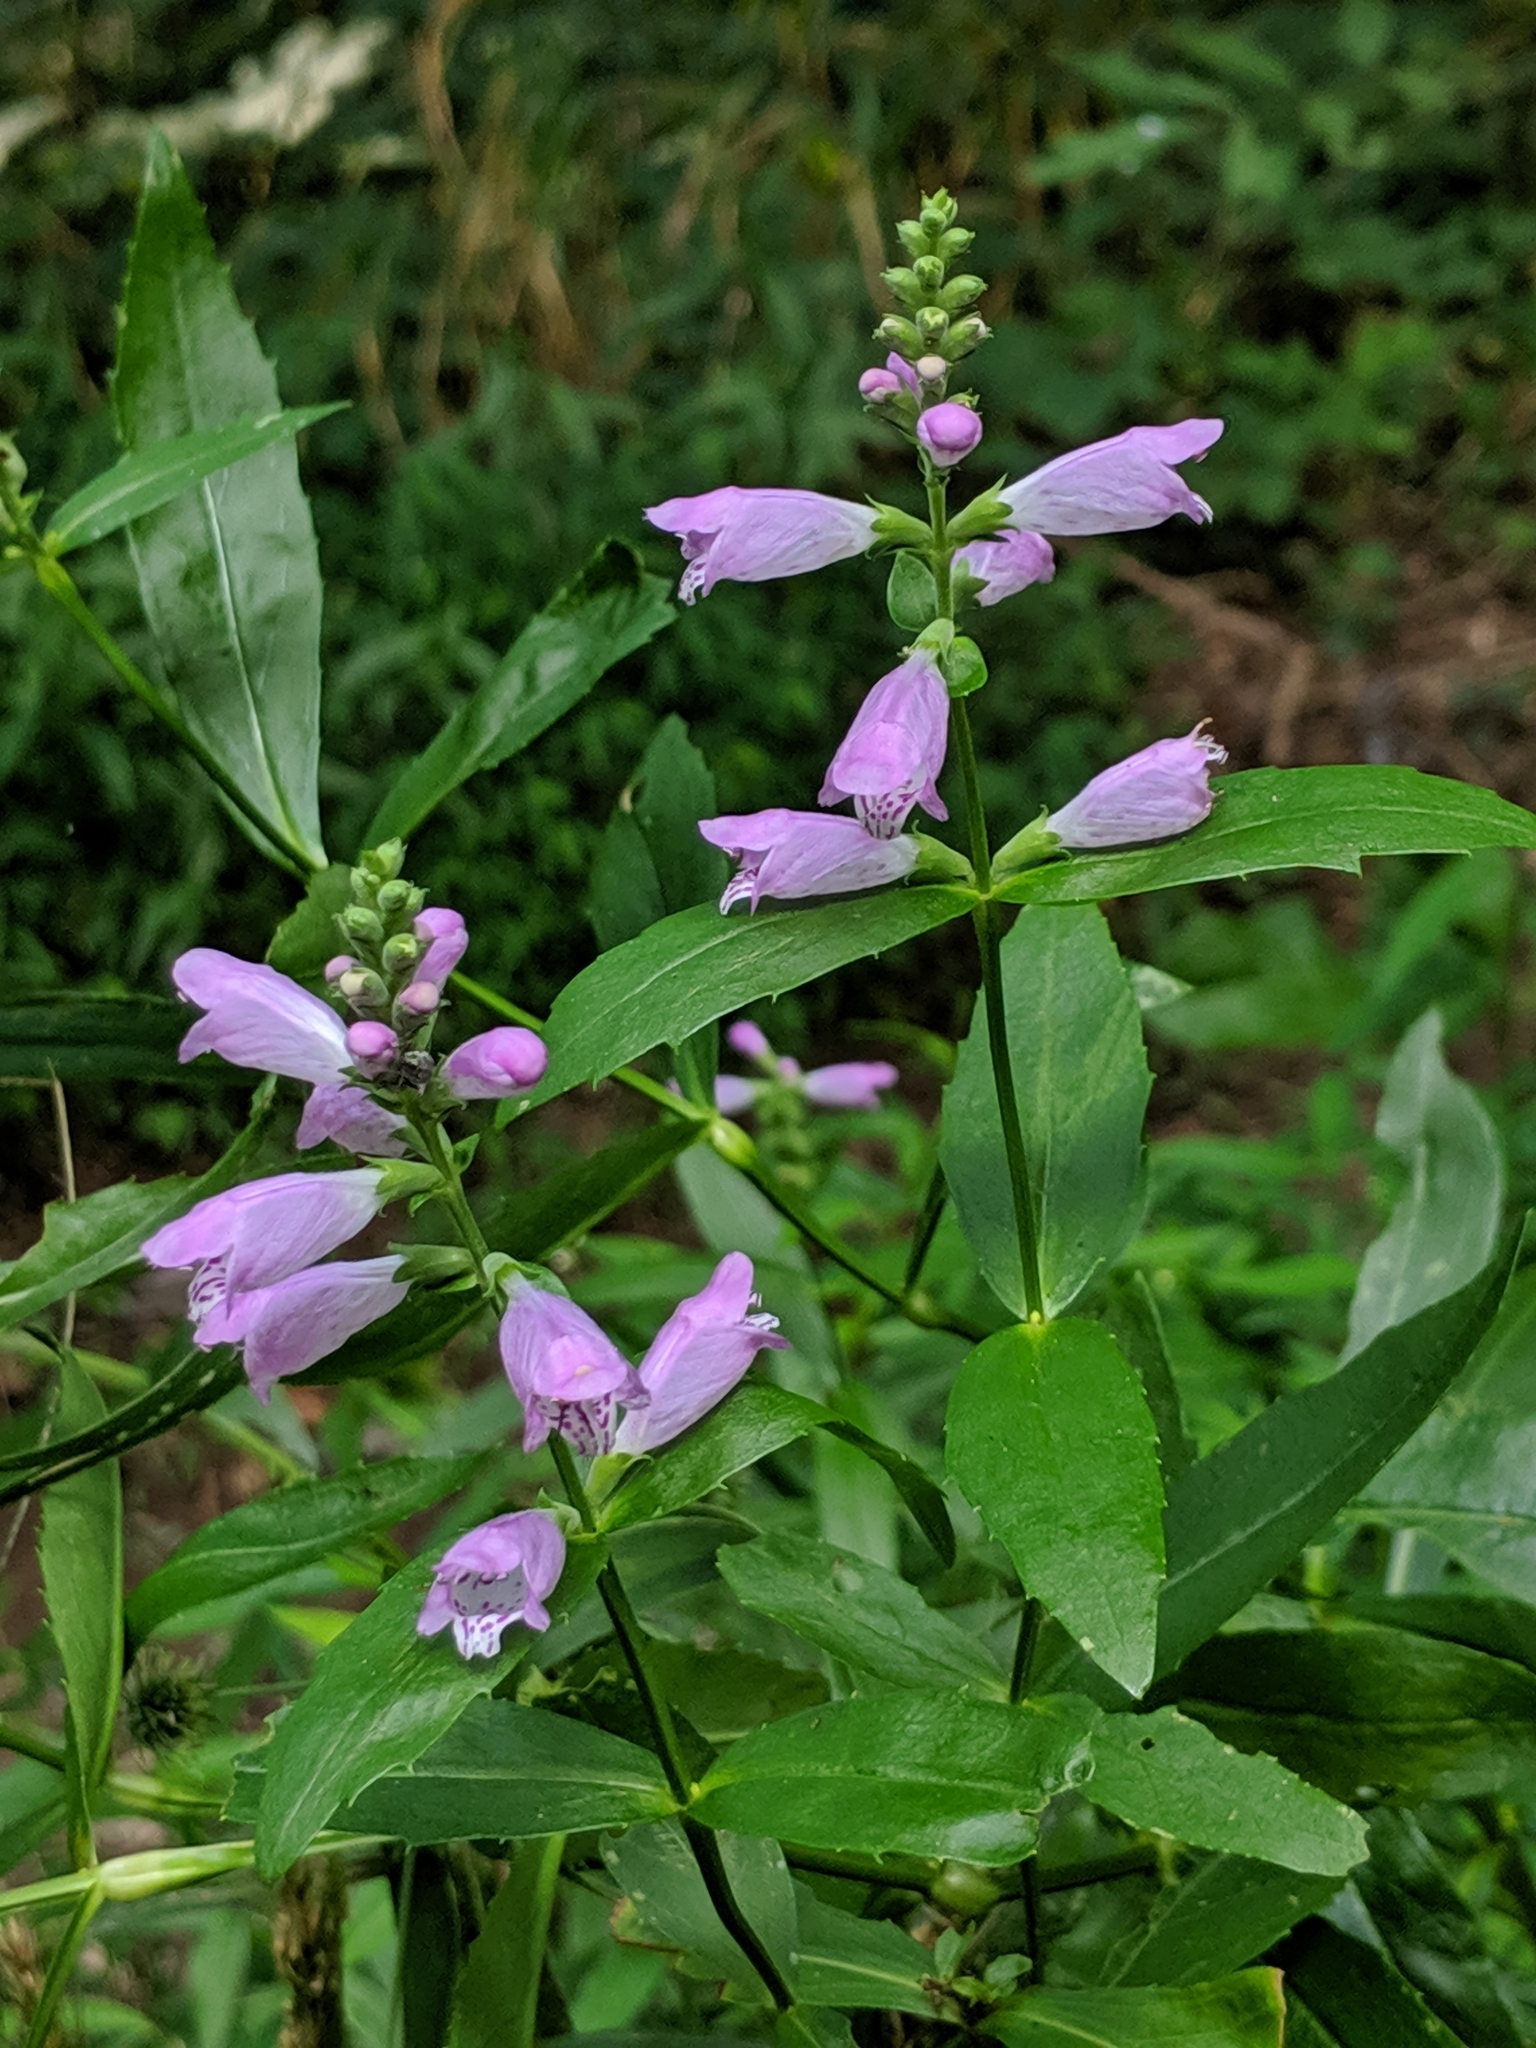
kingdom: Plantae
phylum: Tracheophyta
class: Magnoliopsida
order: Lamiales
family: Lamiaceae
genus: Physostegia
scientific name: Physostegia virginiana
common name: Obedient-plant
